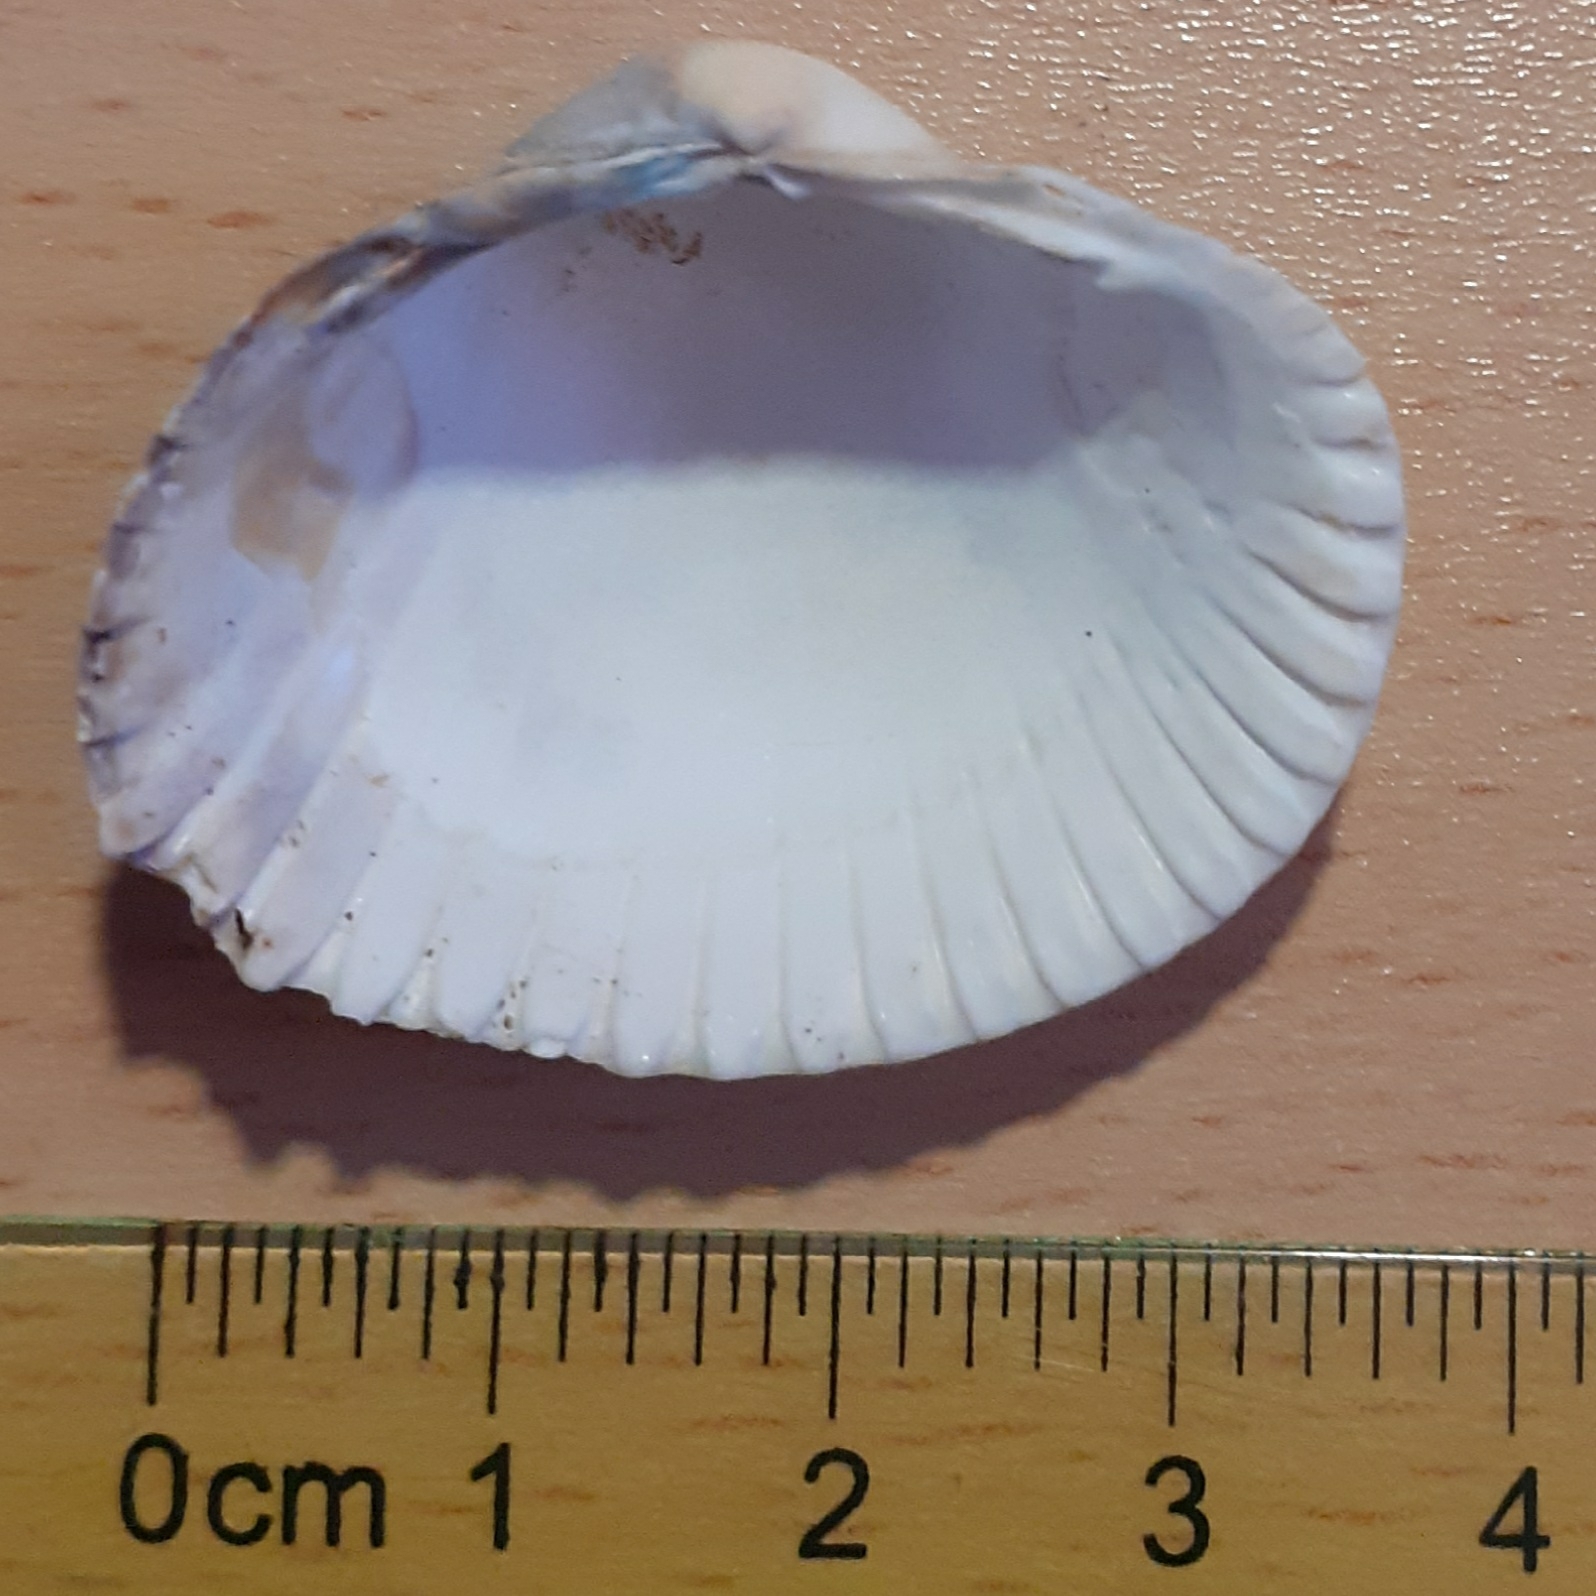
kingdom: Animalia
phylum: Mollusca
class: Bivalvia
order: Cardiida
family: Cardiidae
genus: Cerastoderma
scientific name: Cerastoderma edule
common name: Common cockle
